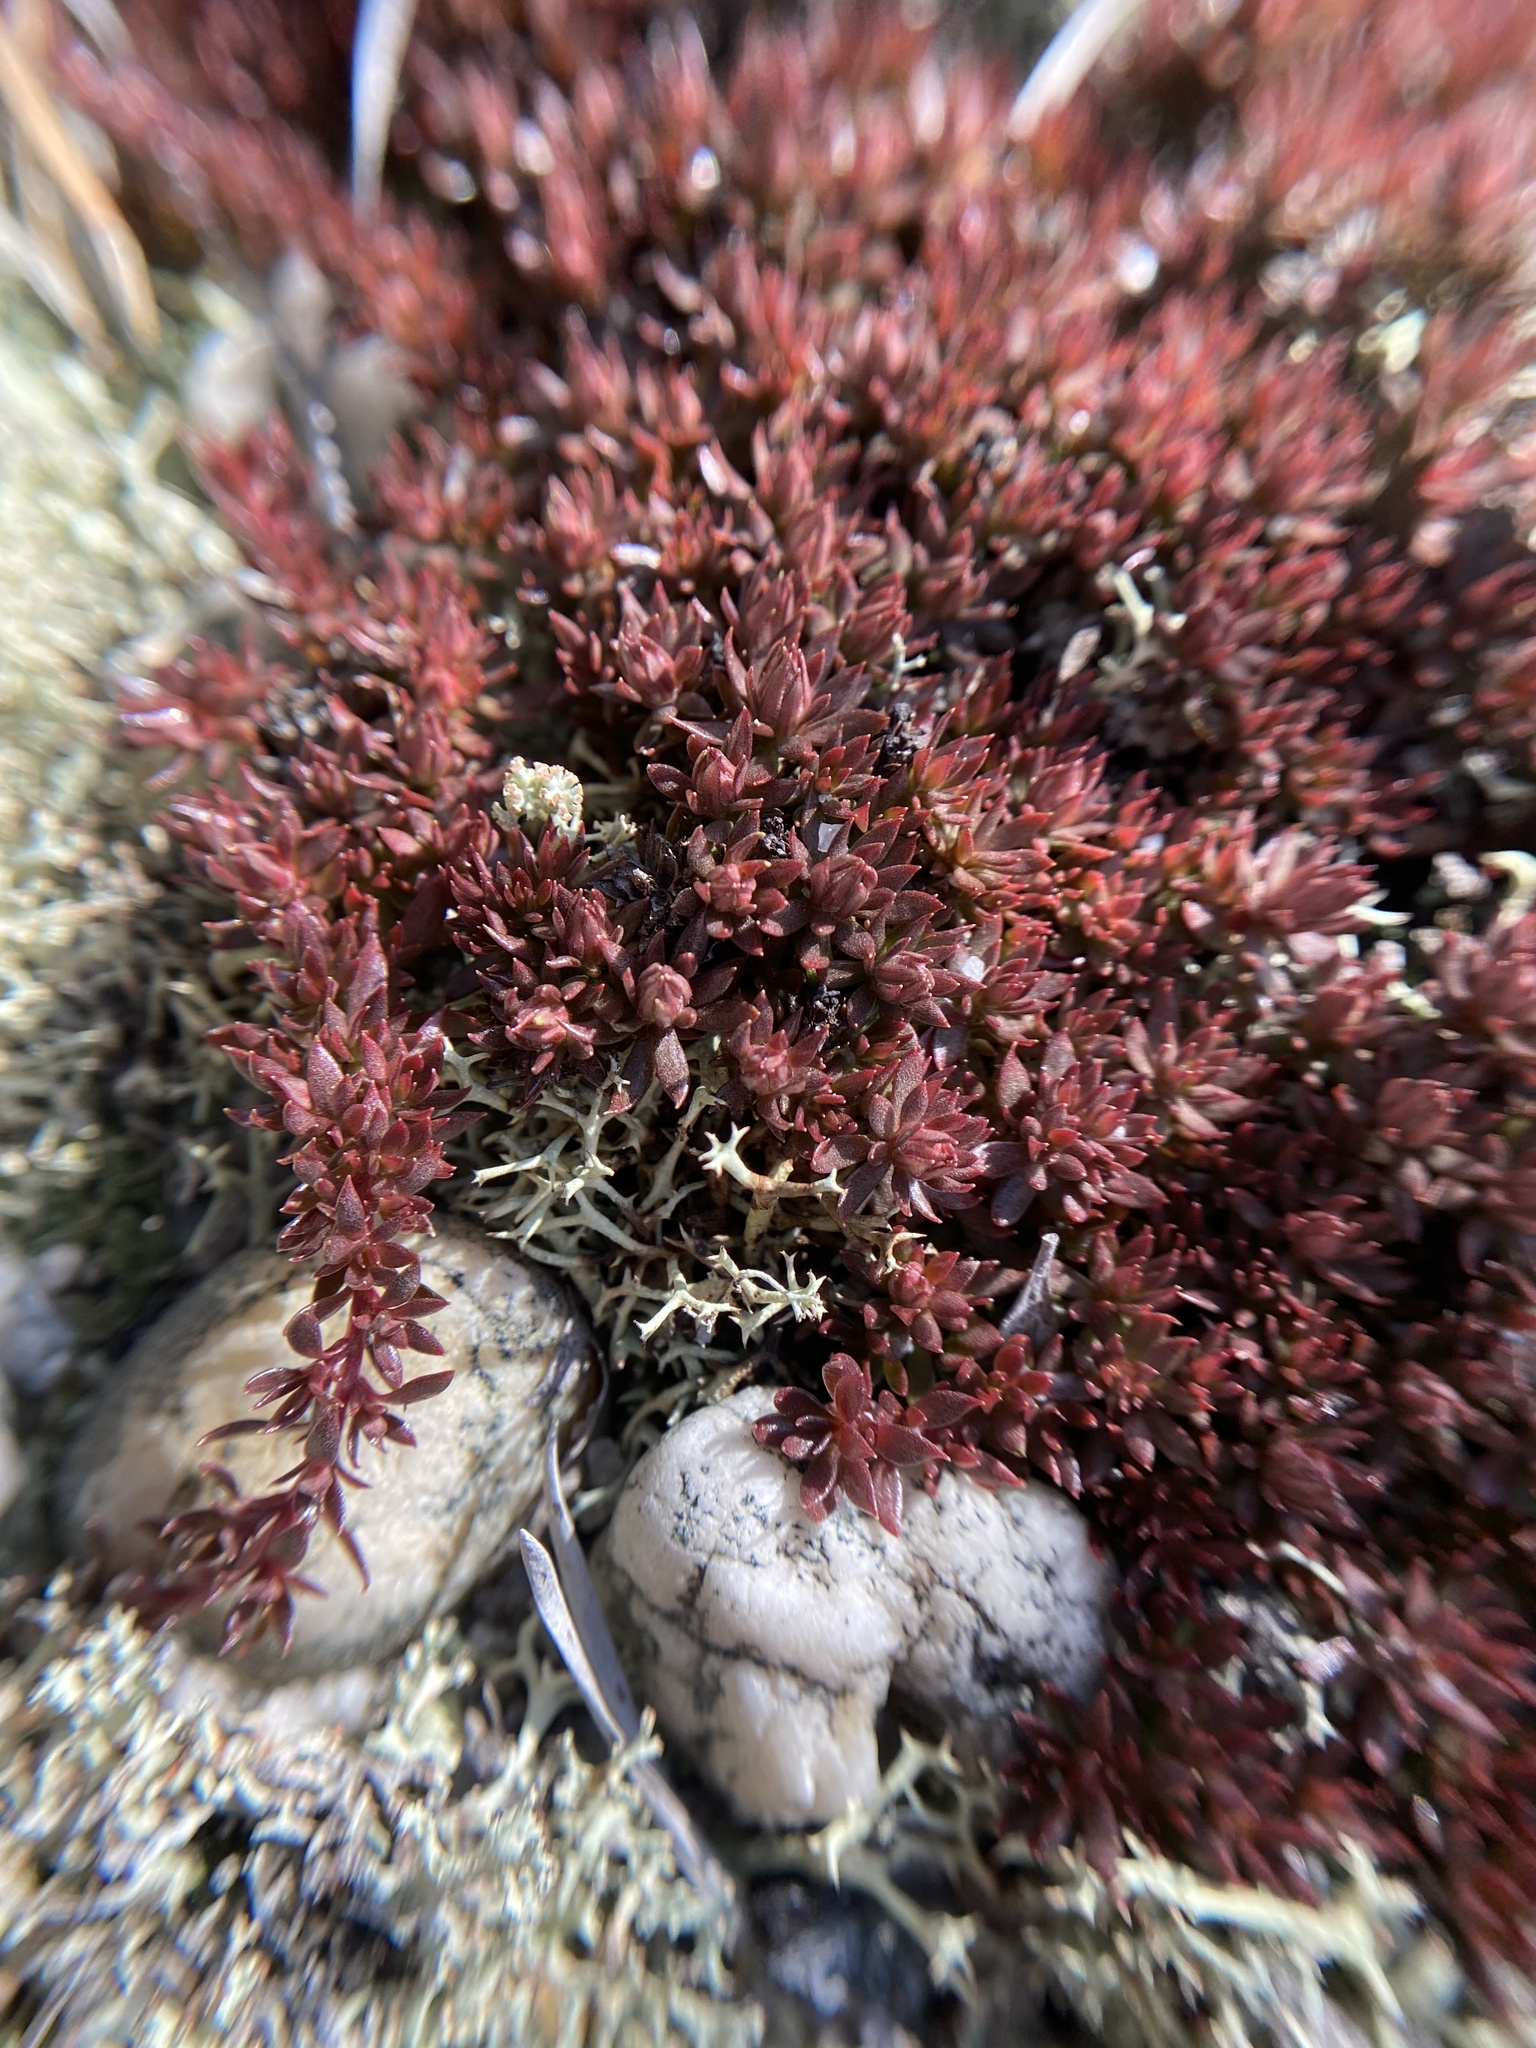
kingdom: Plantae
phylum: Tracheophyta
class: Magnoliopsida
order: Ericales
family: Diapensiaceae
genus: Pyxidanthera
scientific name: Pyxidanthera barbulata
